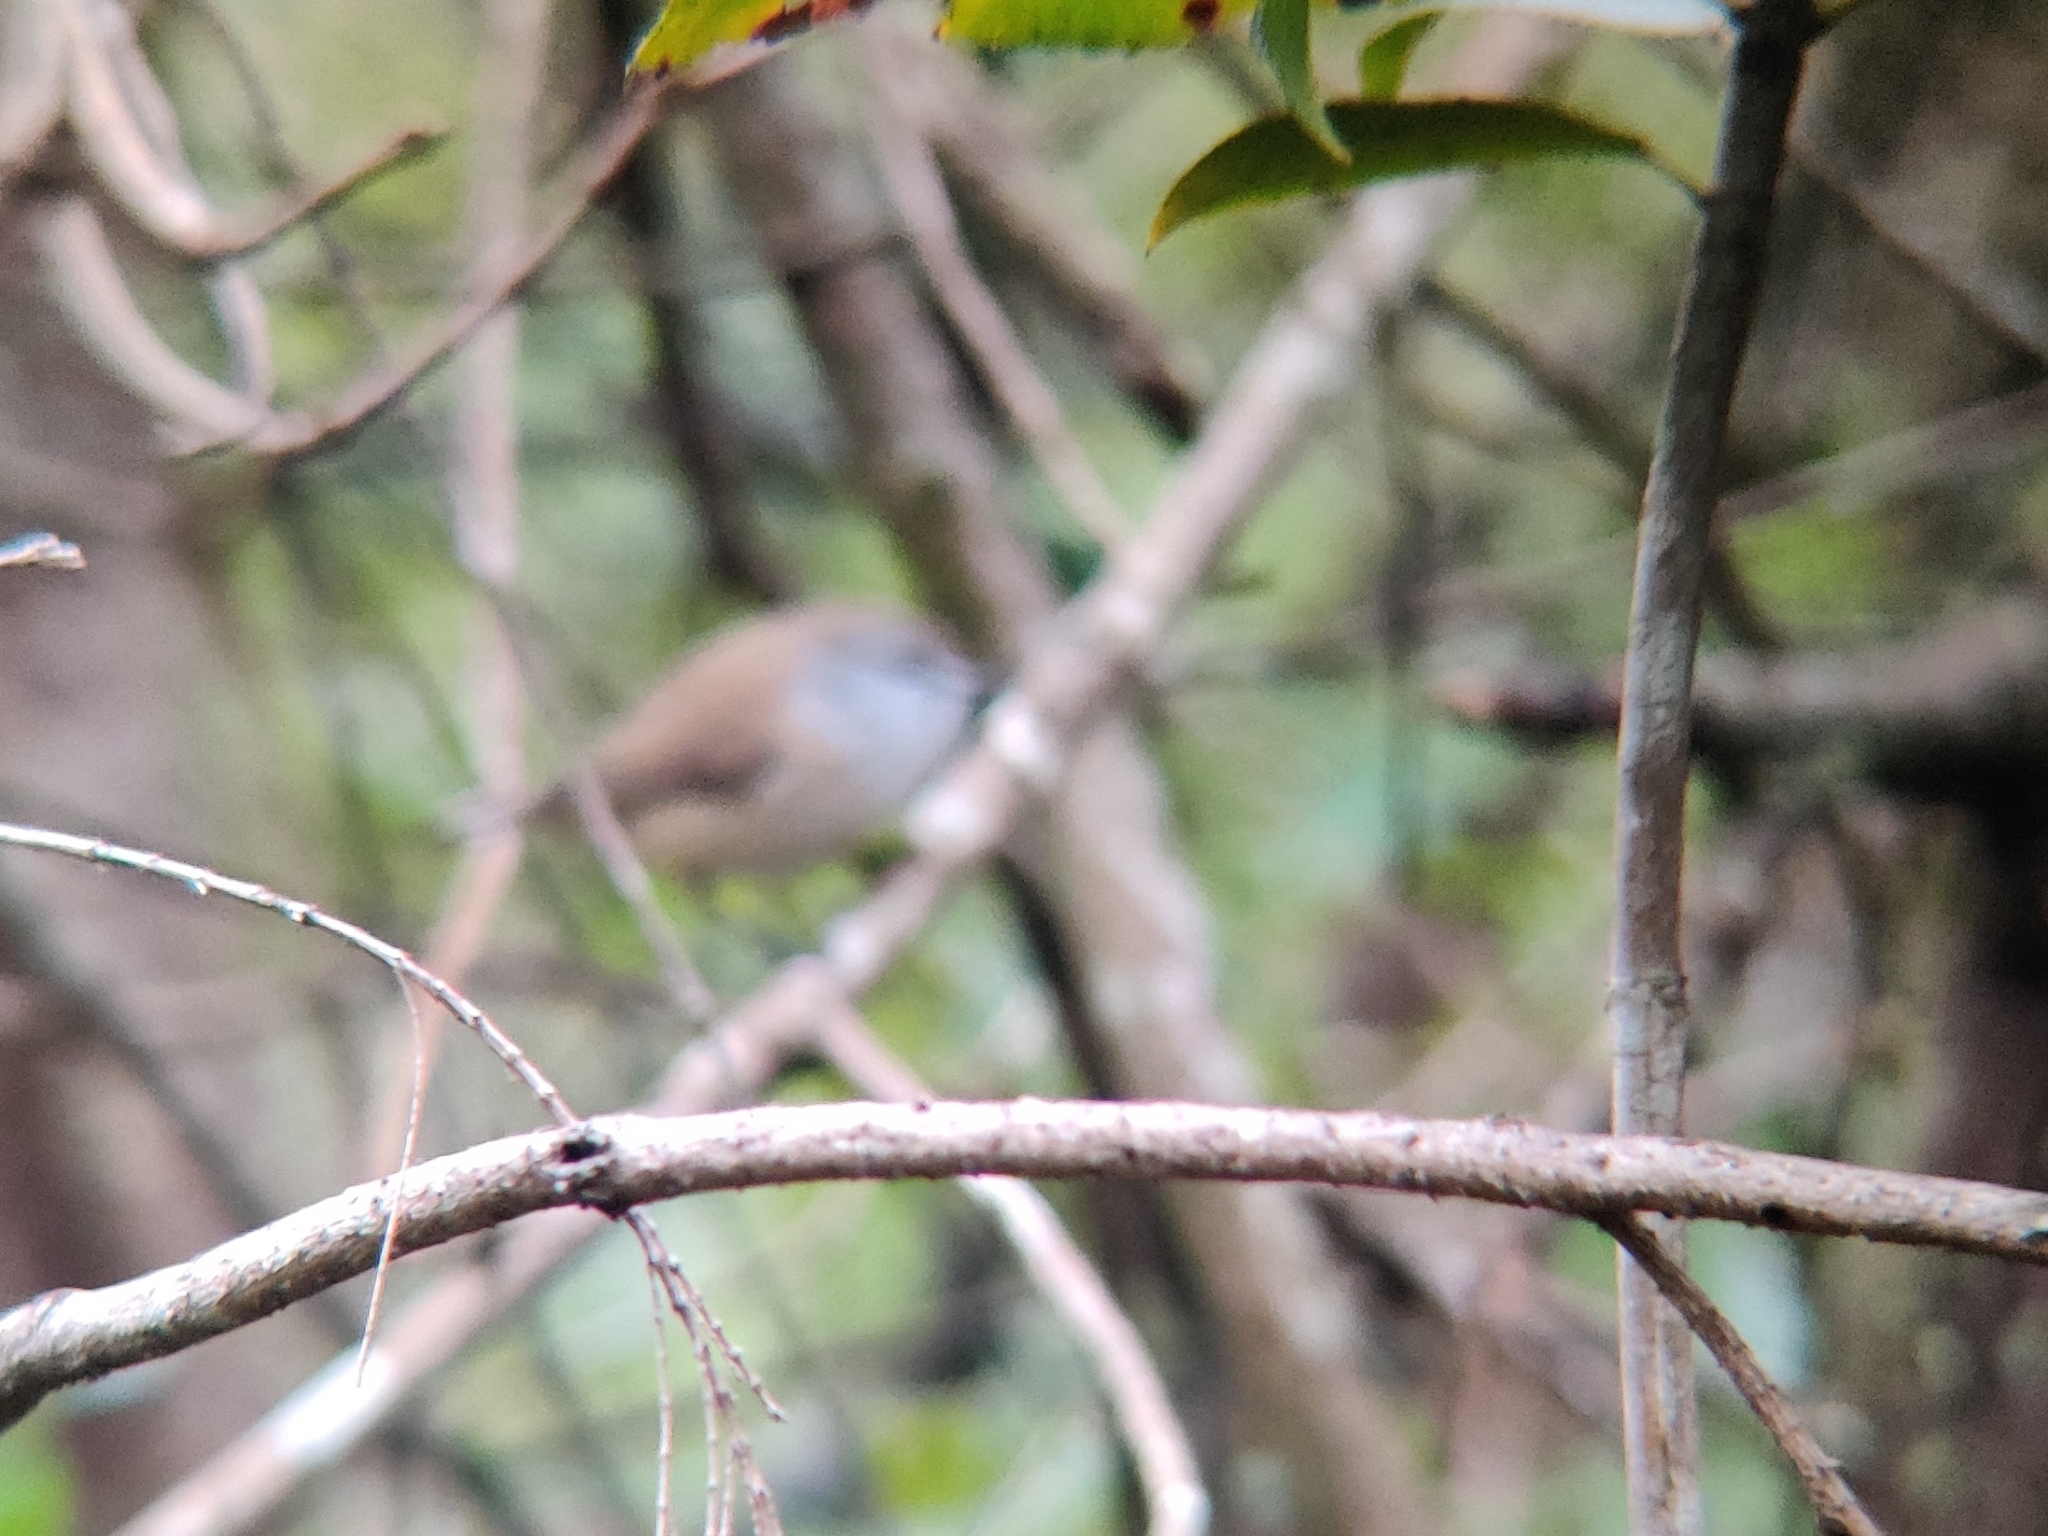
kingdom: Animalia
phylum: Chordata
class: Aves
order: Passeriformes
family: Acanthizidae
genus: Gerygone
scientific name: Gerygone mouki
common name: Brown gerygone
